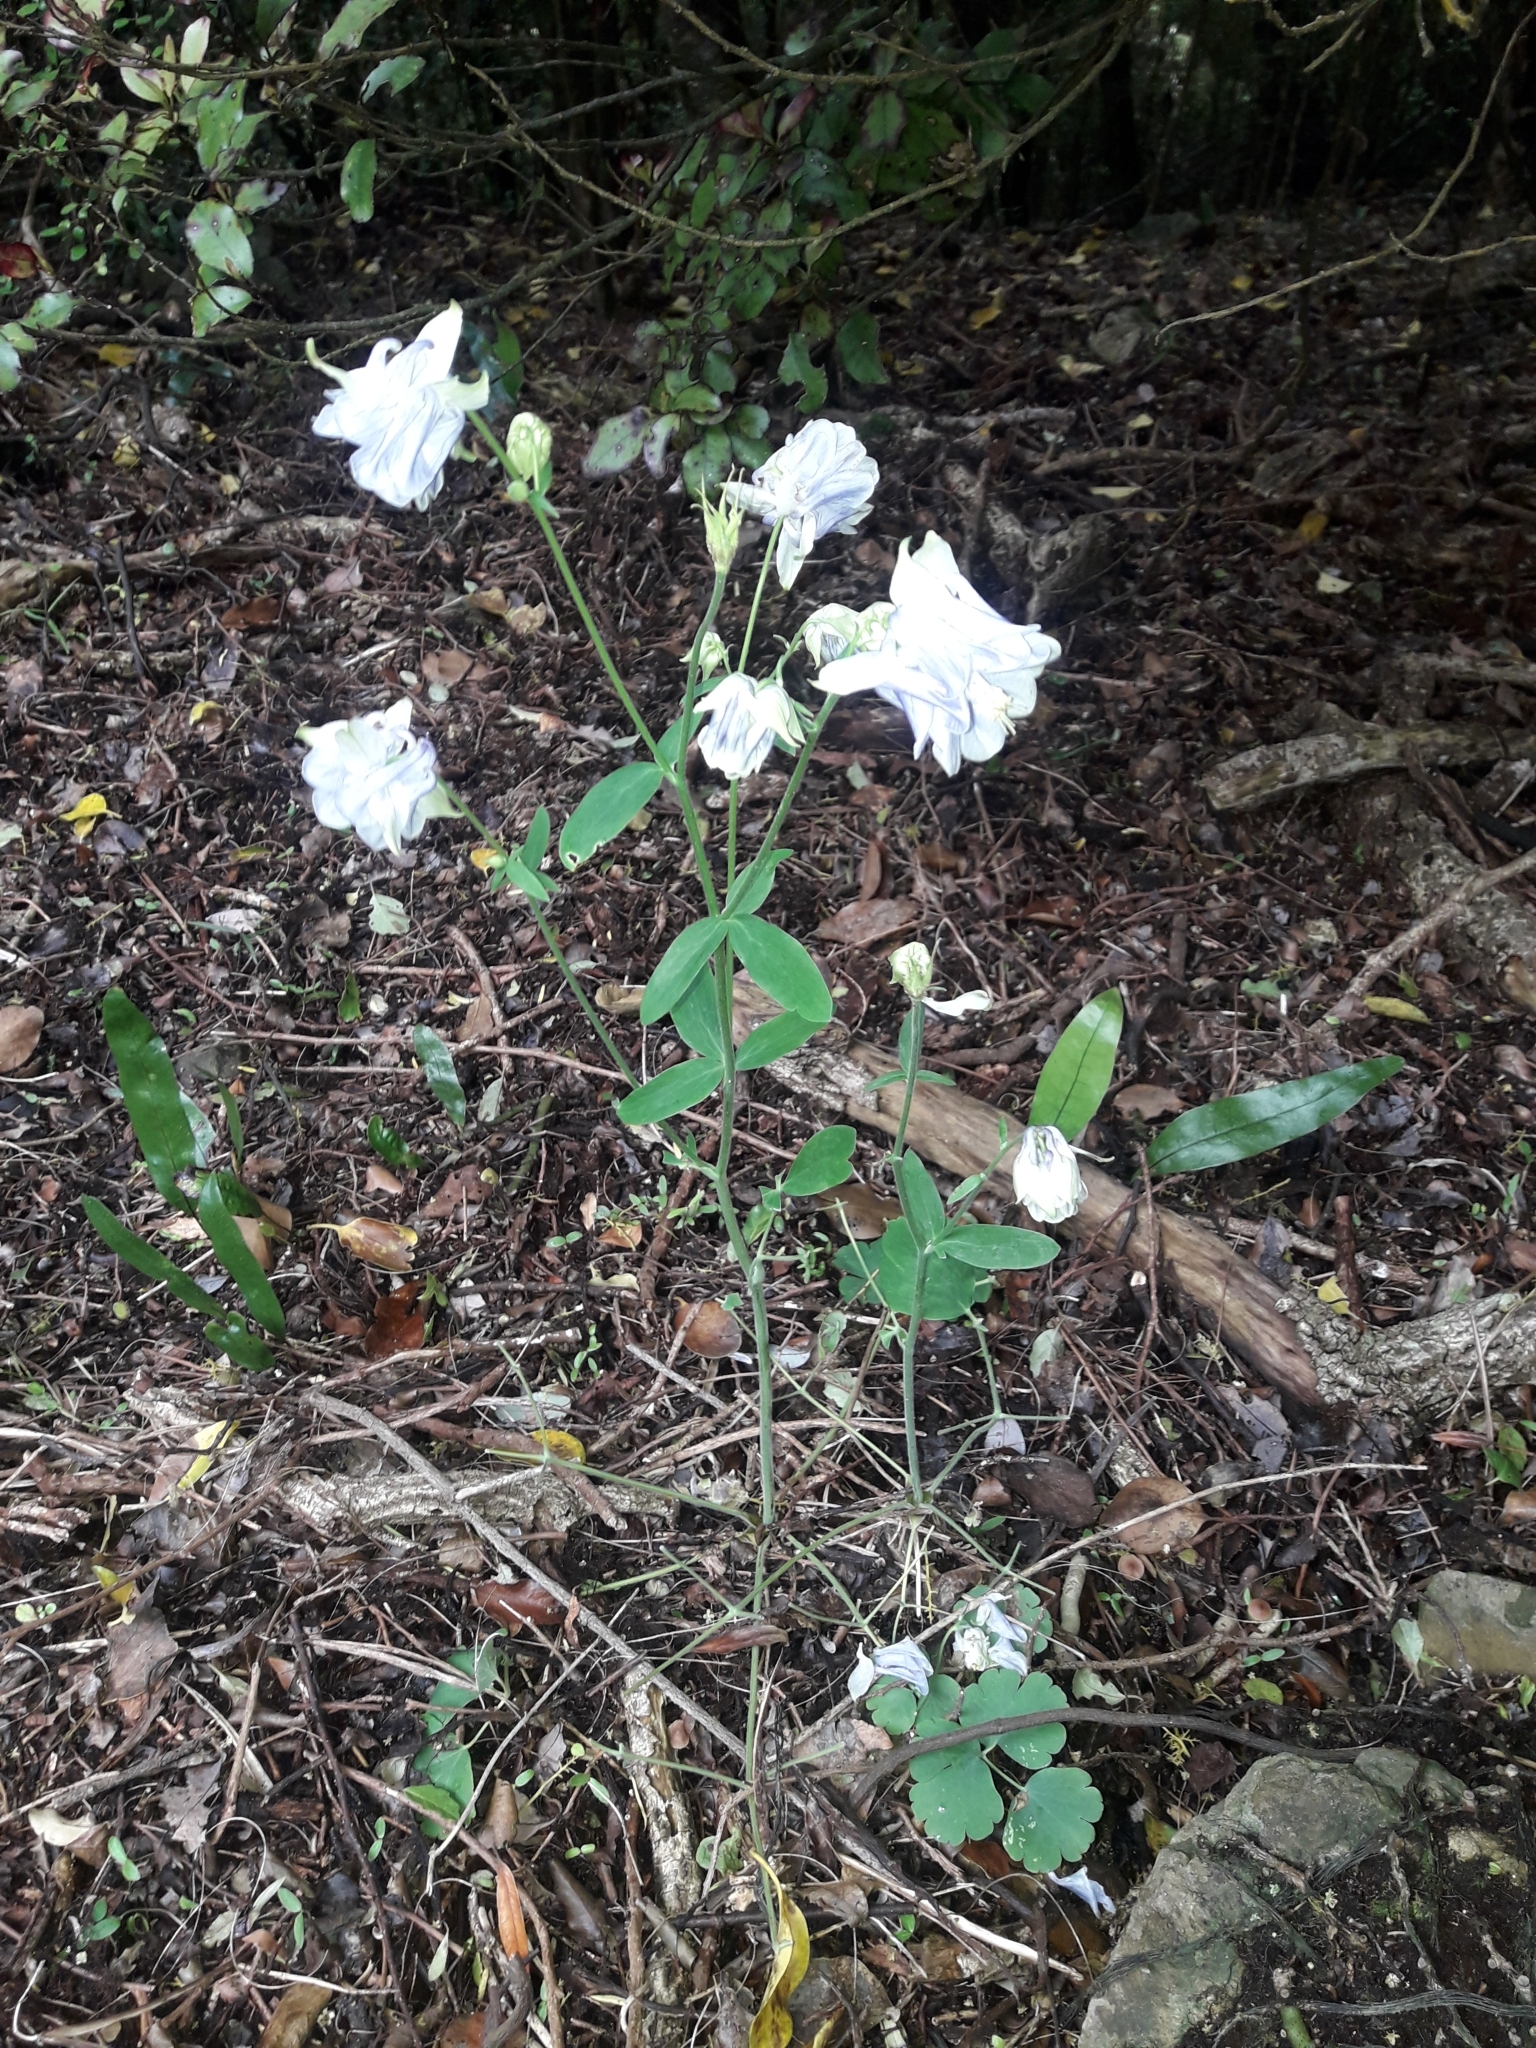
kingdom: Plantae
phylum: Tracheophyta
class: Magnoliopsida
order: Ranunculales
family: Ranunculaceae
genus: Aquilegia
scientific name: Aquilegia vulgaris
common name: Columbine
